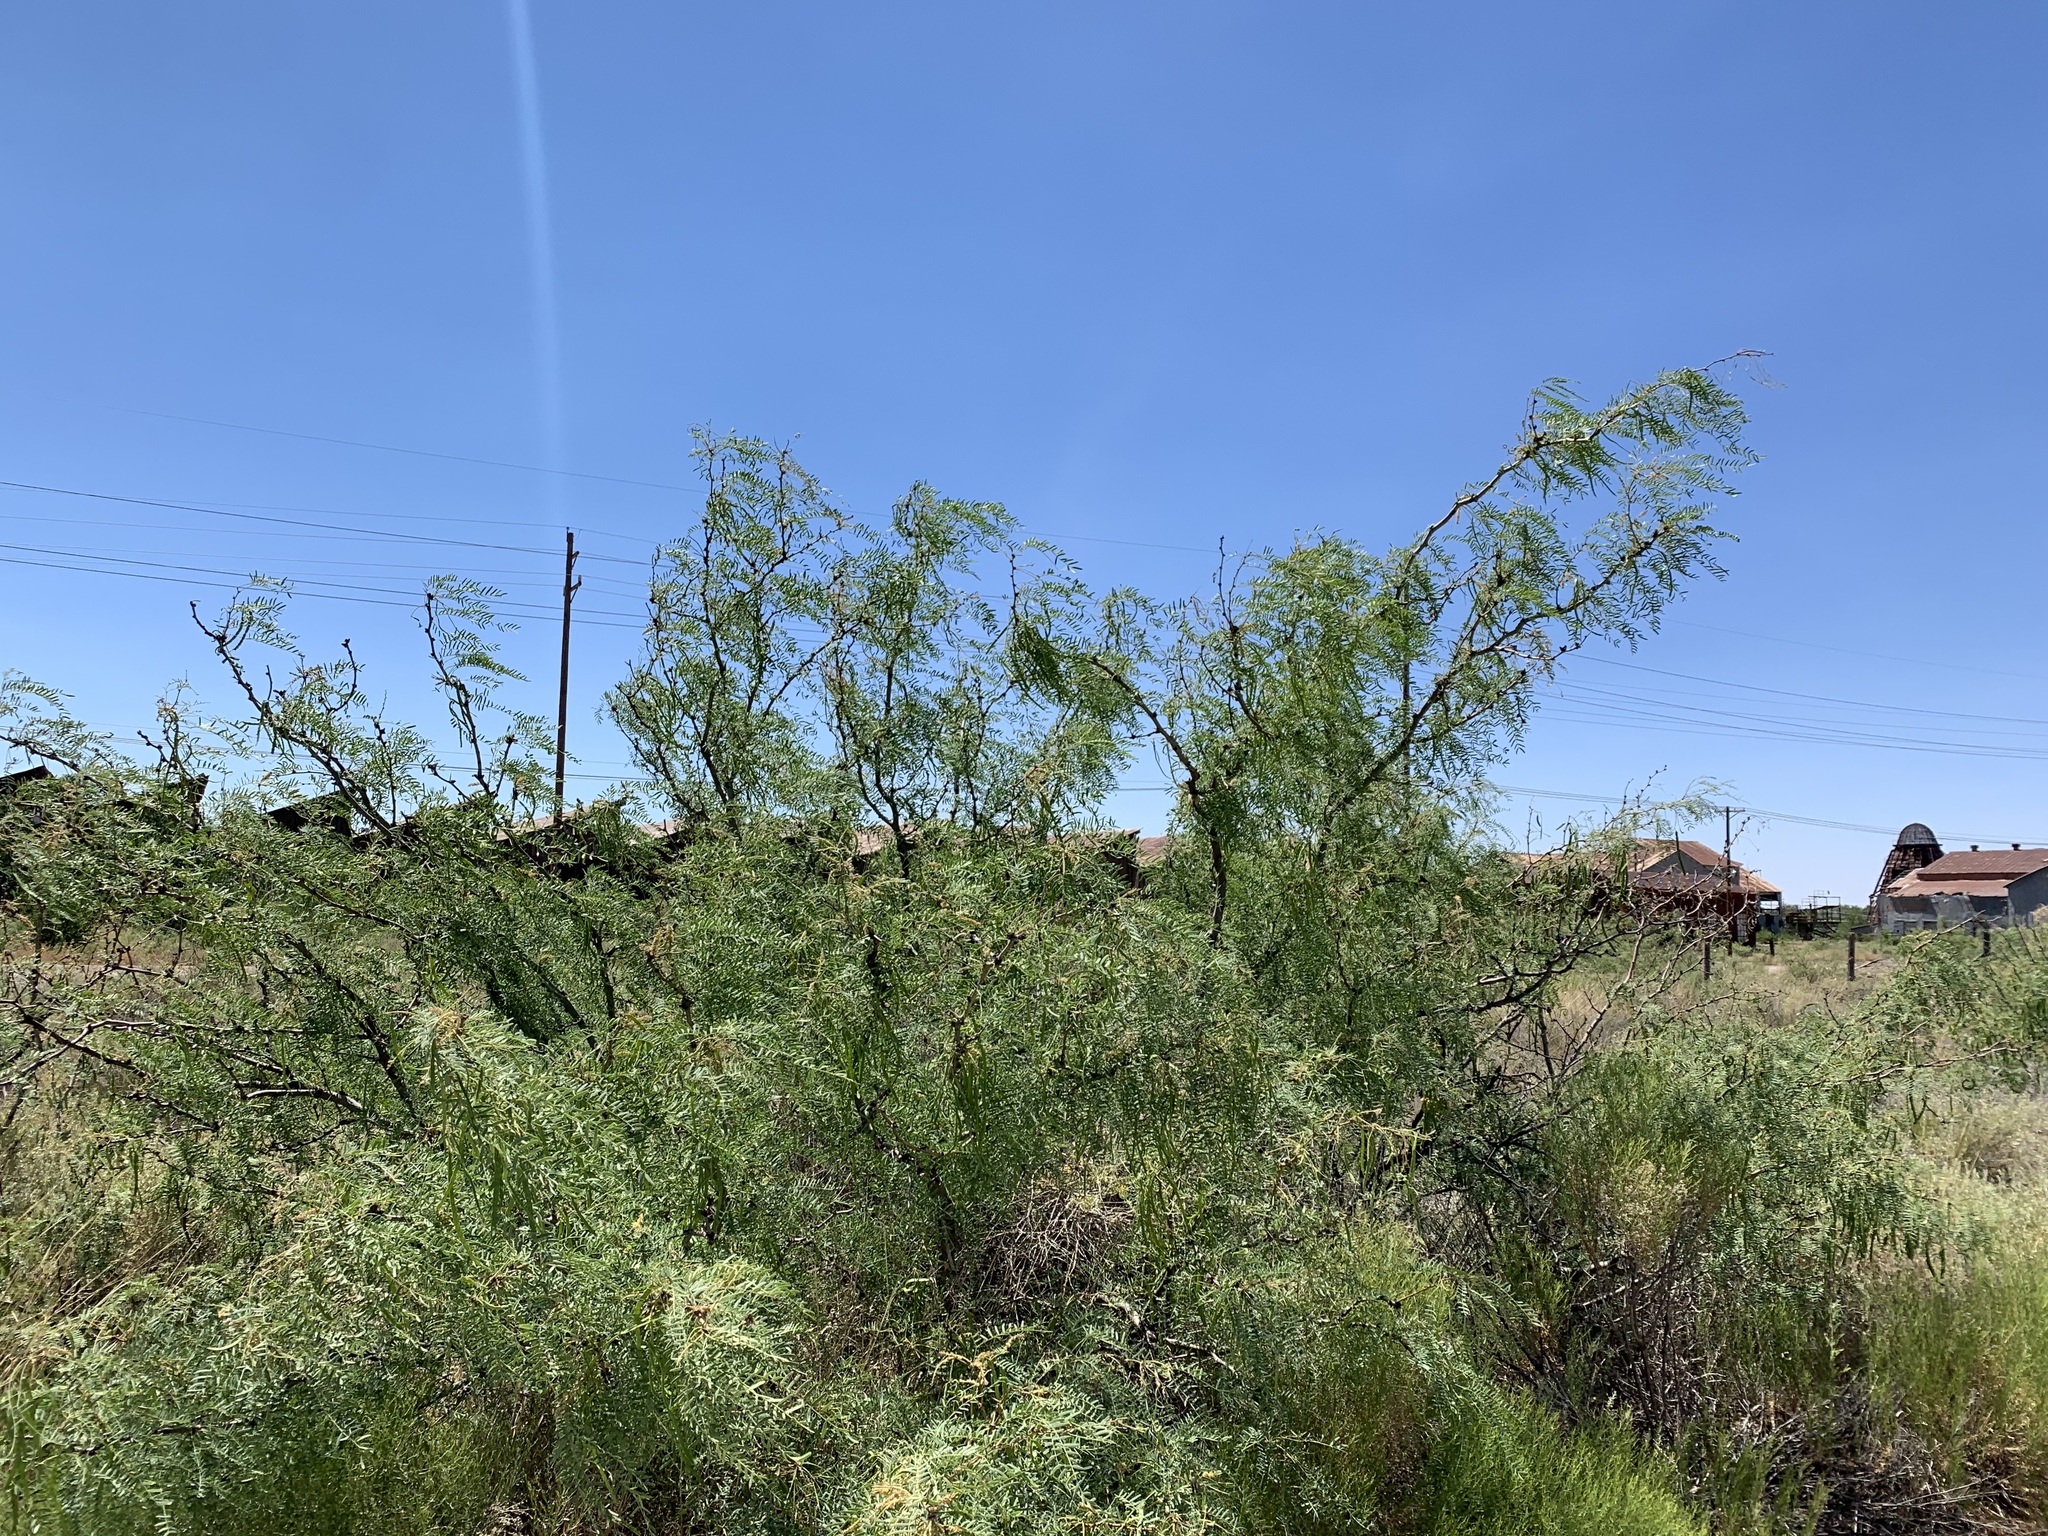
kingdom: Plantae
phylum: Tracheophyta
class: Magnoliopsida
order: Fabales
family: Fabaceae
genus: Prosopis
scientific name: Prosopis glandulosa
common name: Honey mesquite
